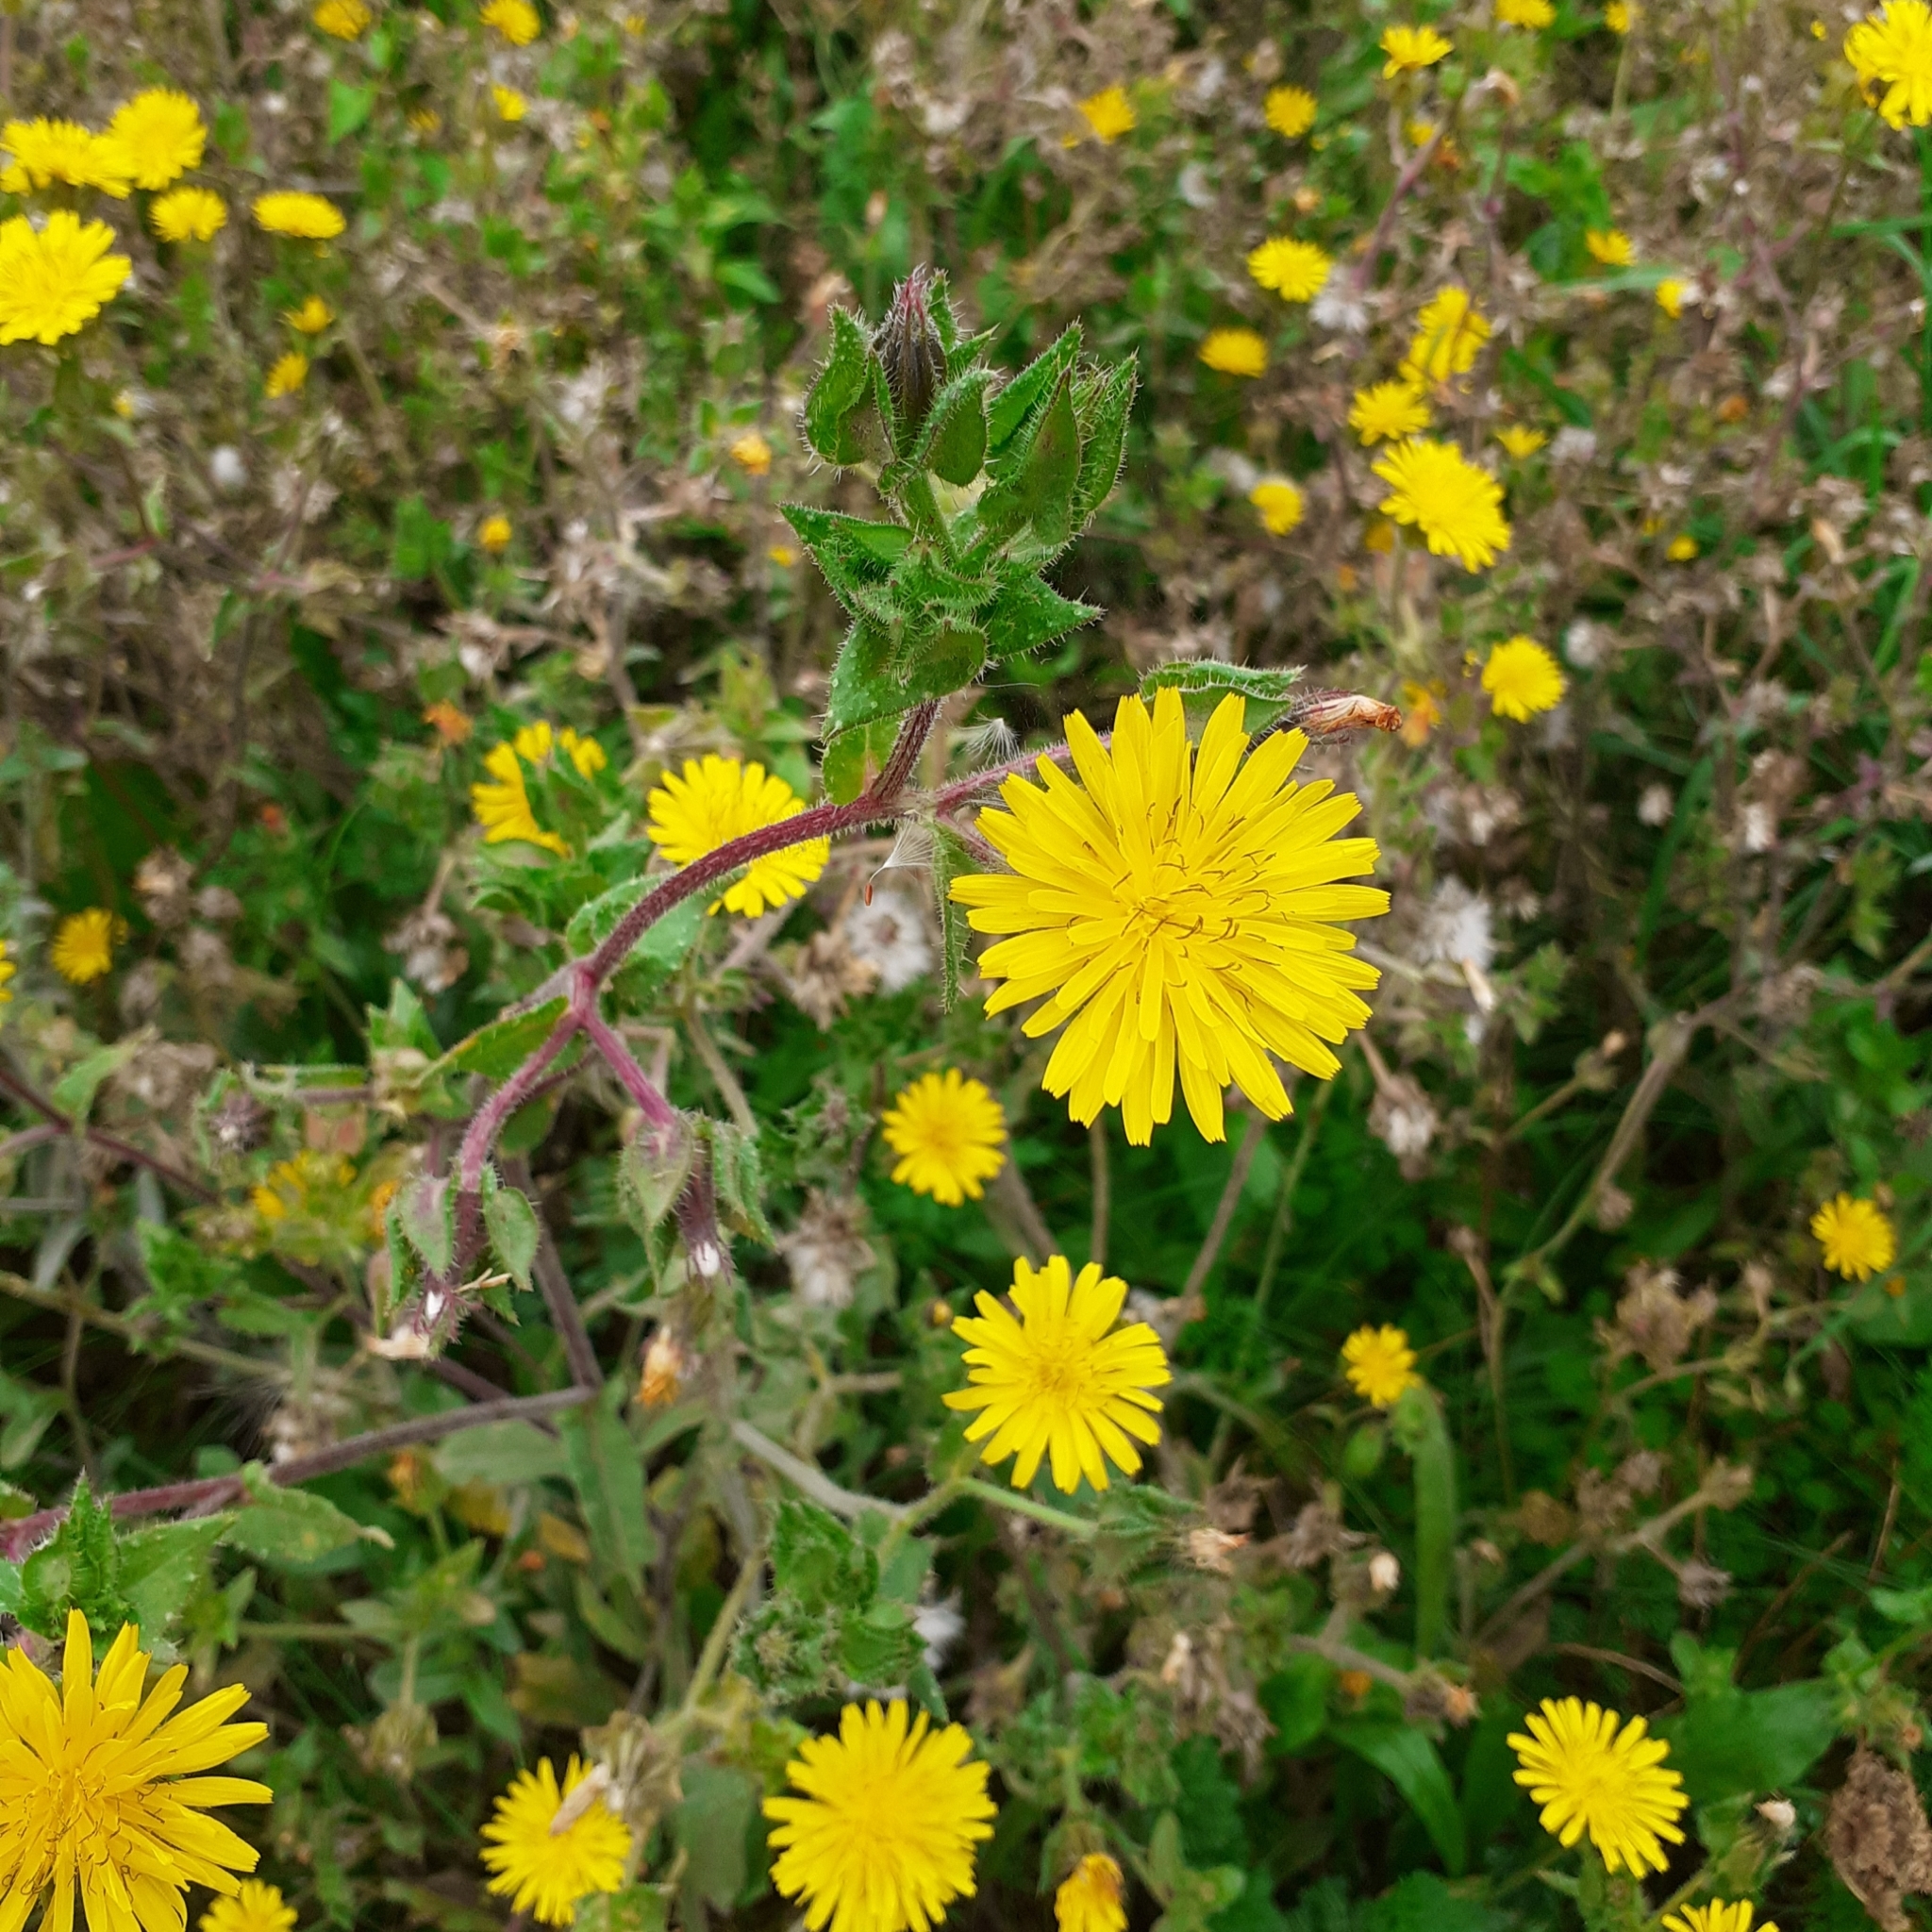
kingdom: Plantae
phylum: Tracheophyta
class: Magnoliopsida
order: Asterales
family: Asteraceae
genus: Helminthotheca
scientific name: Helminthotheca echioides
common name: Ox-tongue
